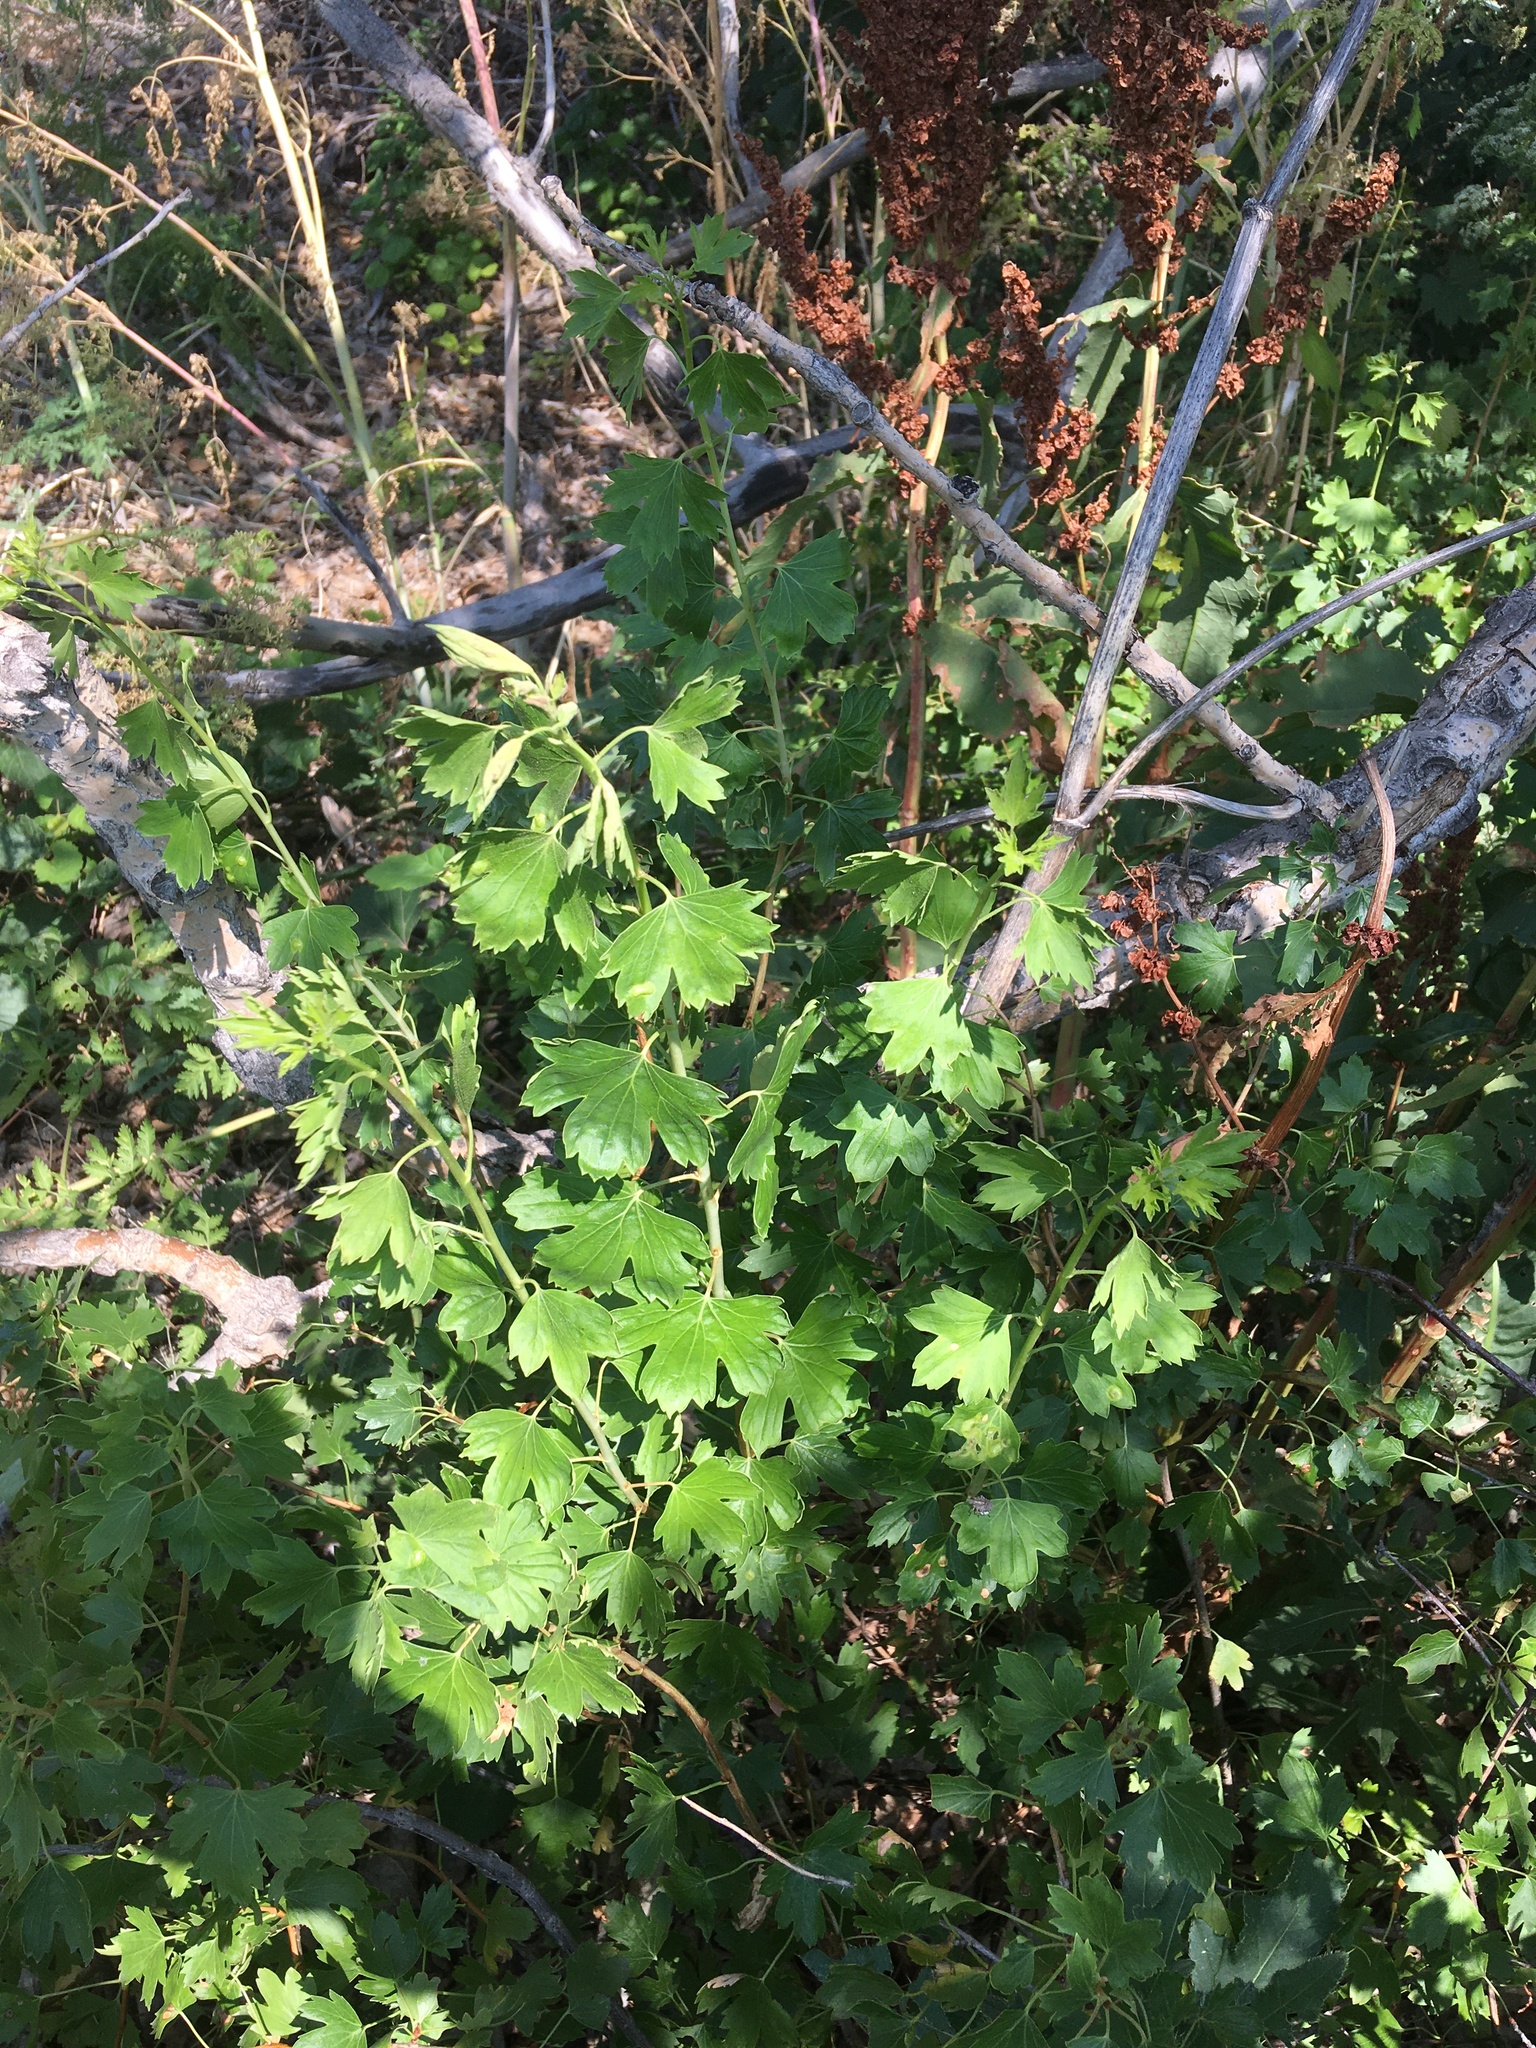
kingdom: Plantae
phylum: Tracheophyta
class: Magnoliopsida
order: Saxifragales
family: Grossulariaceae
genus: Ribes
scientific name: Ribes aureum
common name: Golden currant
